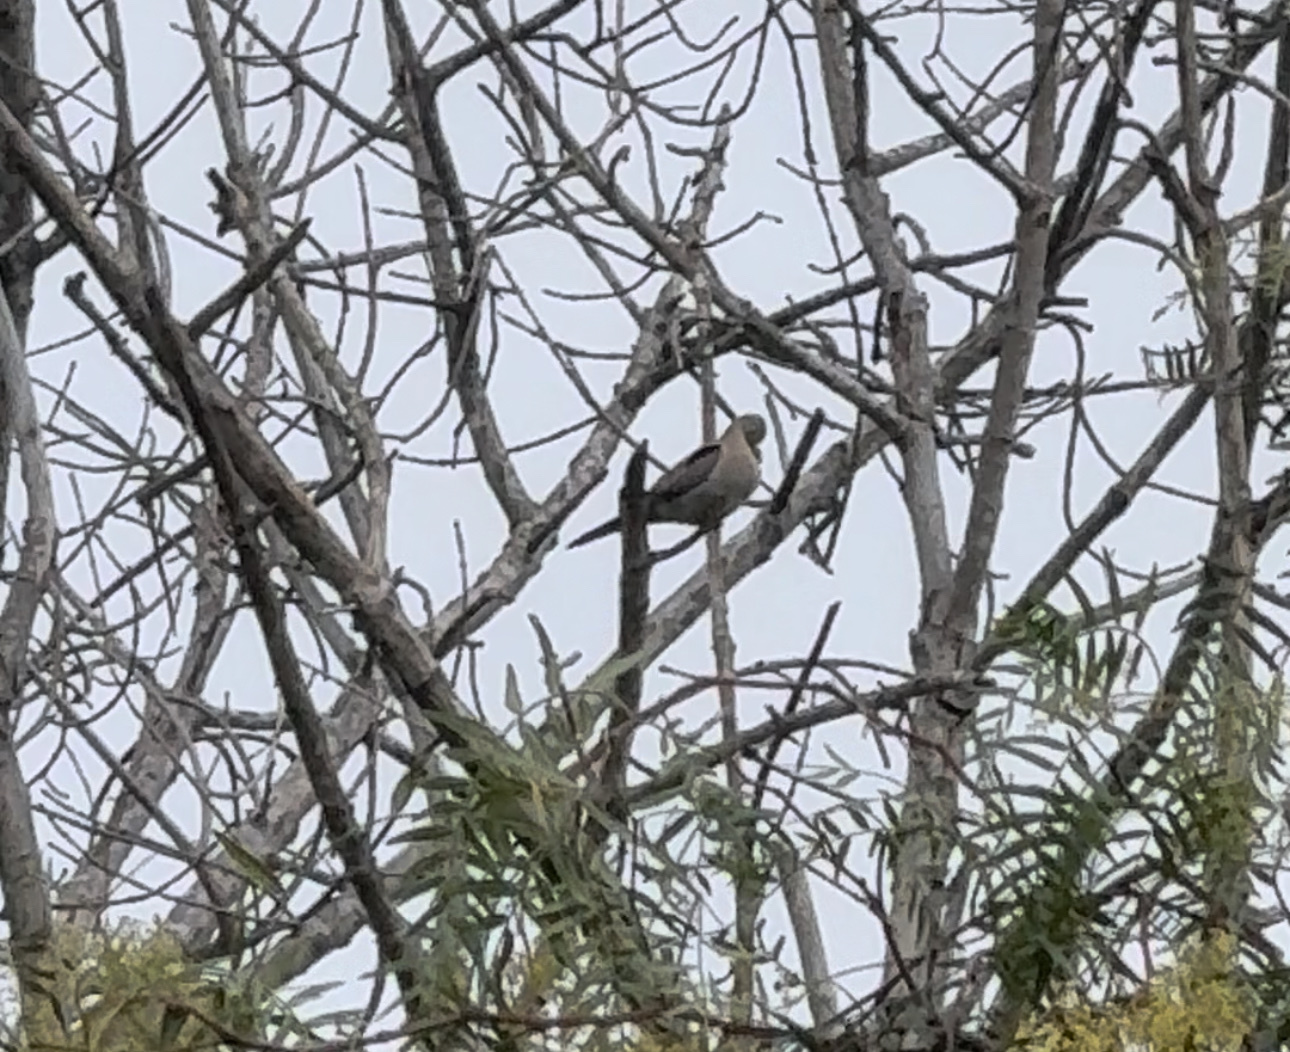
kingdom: Animalia
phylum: Chordata
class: Aves
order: Columbiformes
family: Columbidae
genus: Zenaida
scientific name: Zenaida macroura
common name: Mourning dove
